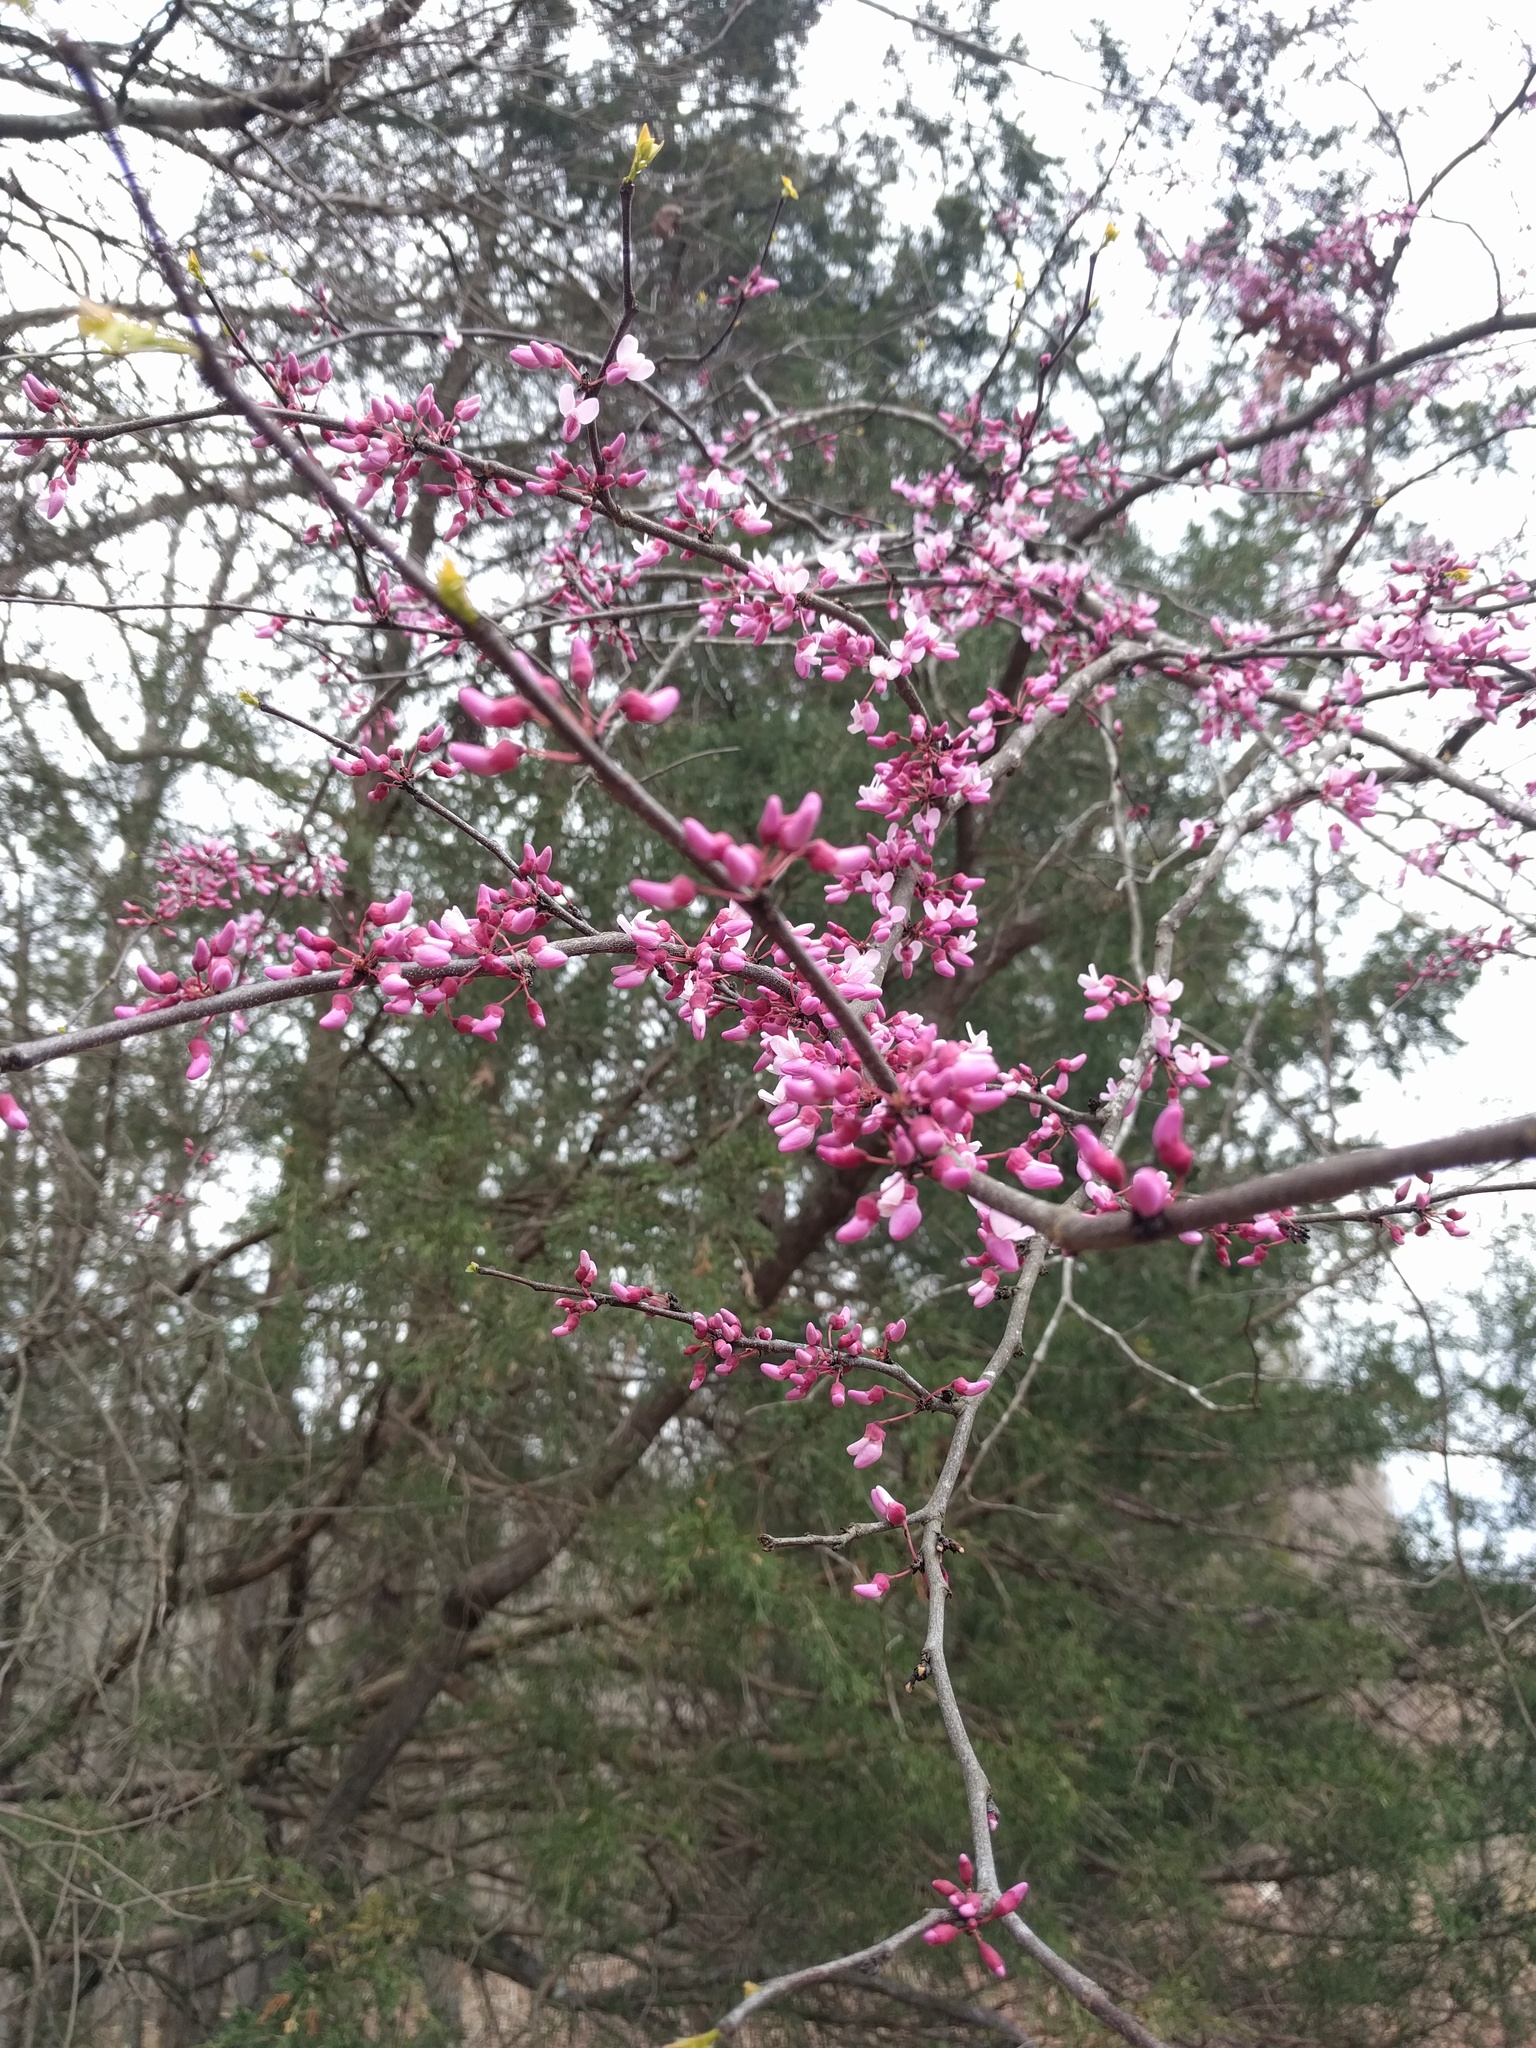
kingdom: Plantae
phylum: Tracheophyta
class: Magnoliopsida
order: Fabales
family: Fabaceae
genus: Cercis
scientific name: Cercis canadensis
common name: Eastern redbud
